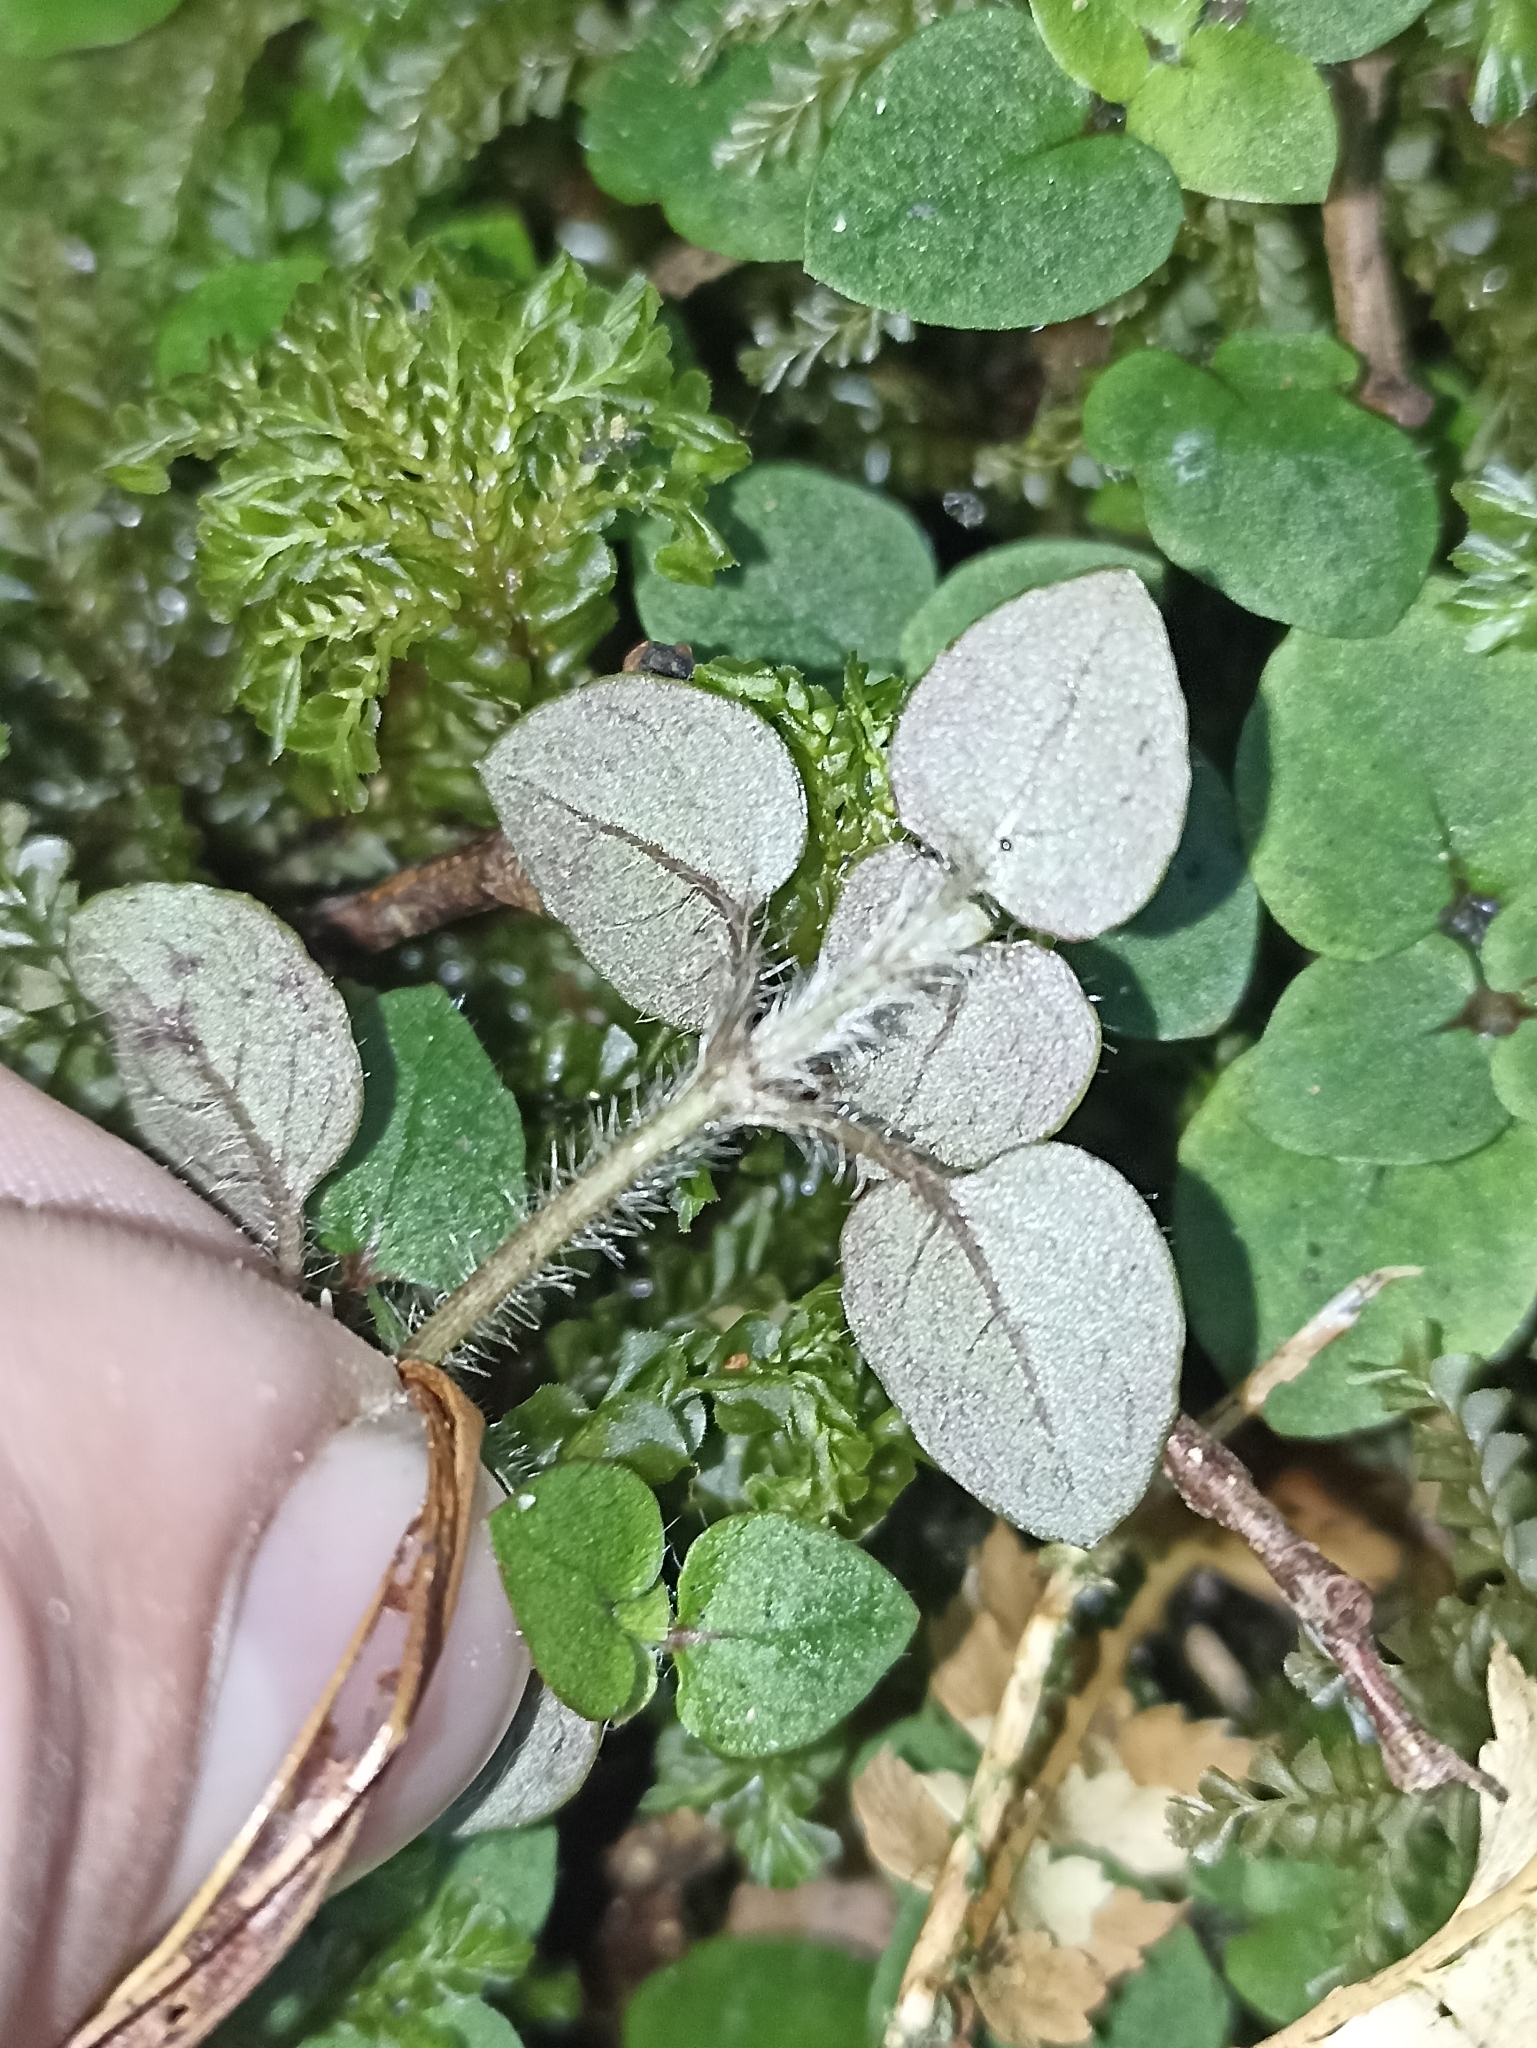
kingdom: Plantae
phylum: Tracheophyta
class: Magnoliopsida
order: Gentianales
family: Rubiaceae
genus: Nertera
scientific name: Nertera villosa
